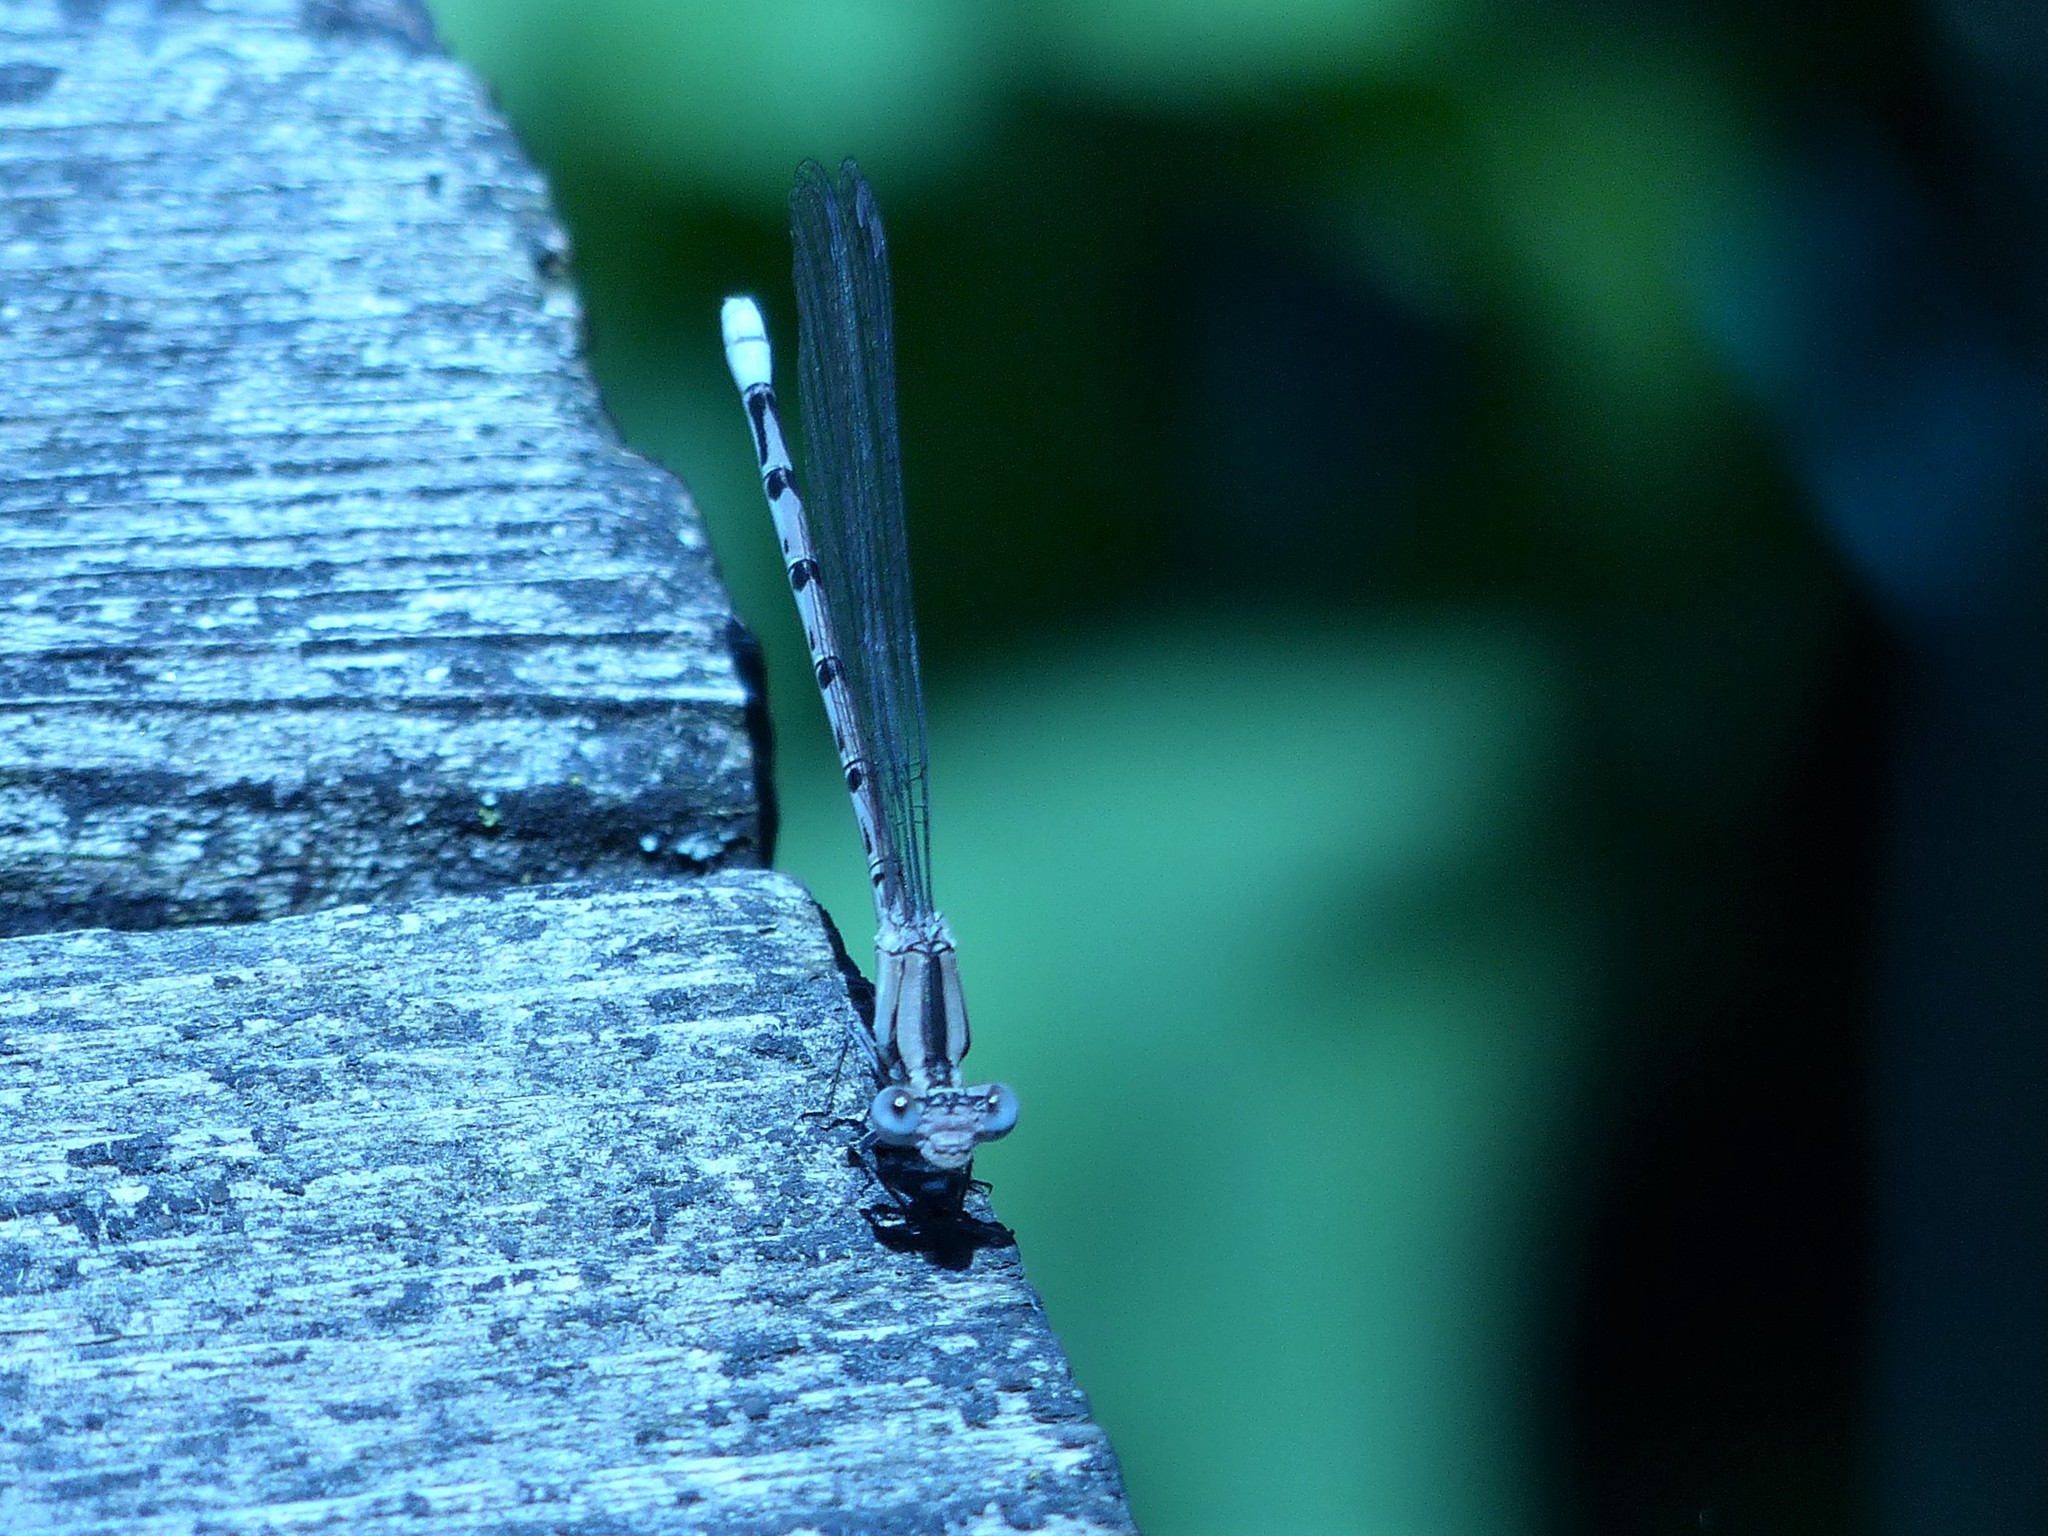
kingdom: Animalia
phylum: Arthropoda
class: Insecta
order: Odonata
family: Coenagrionidae
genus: Argia
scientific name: Argia funebris
